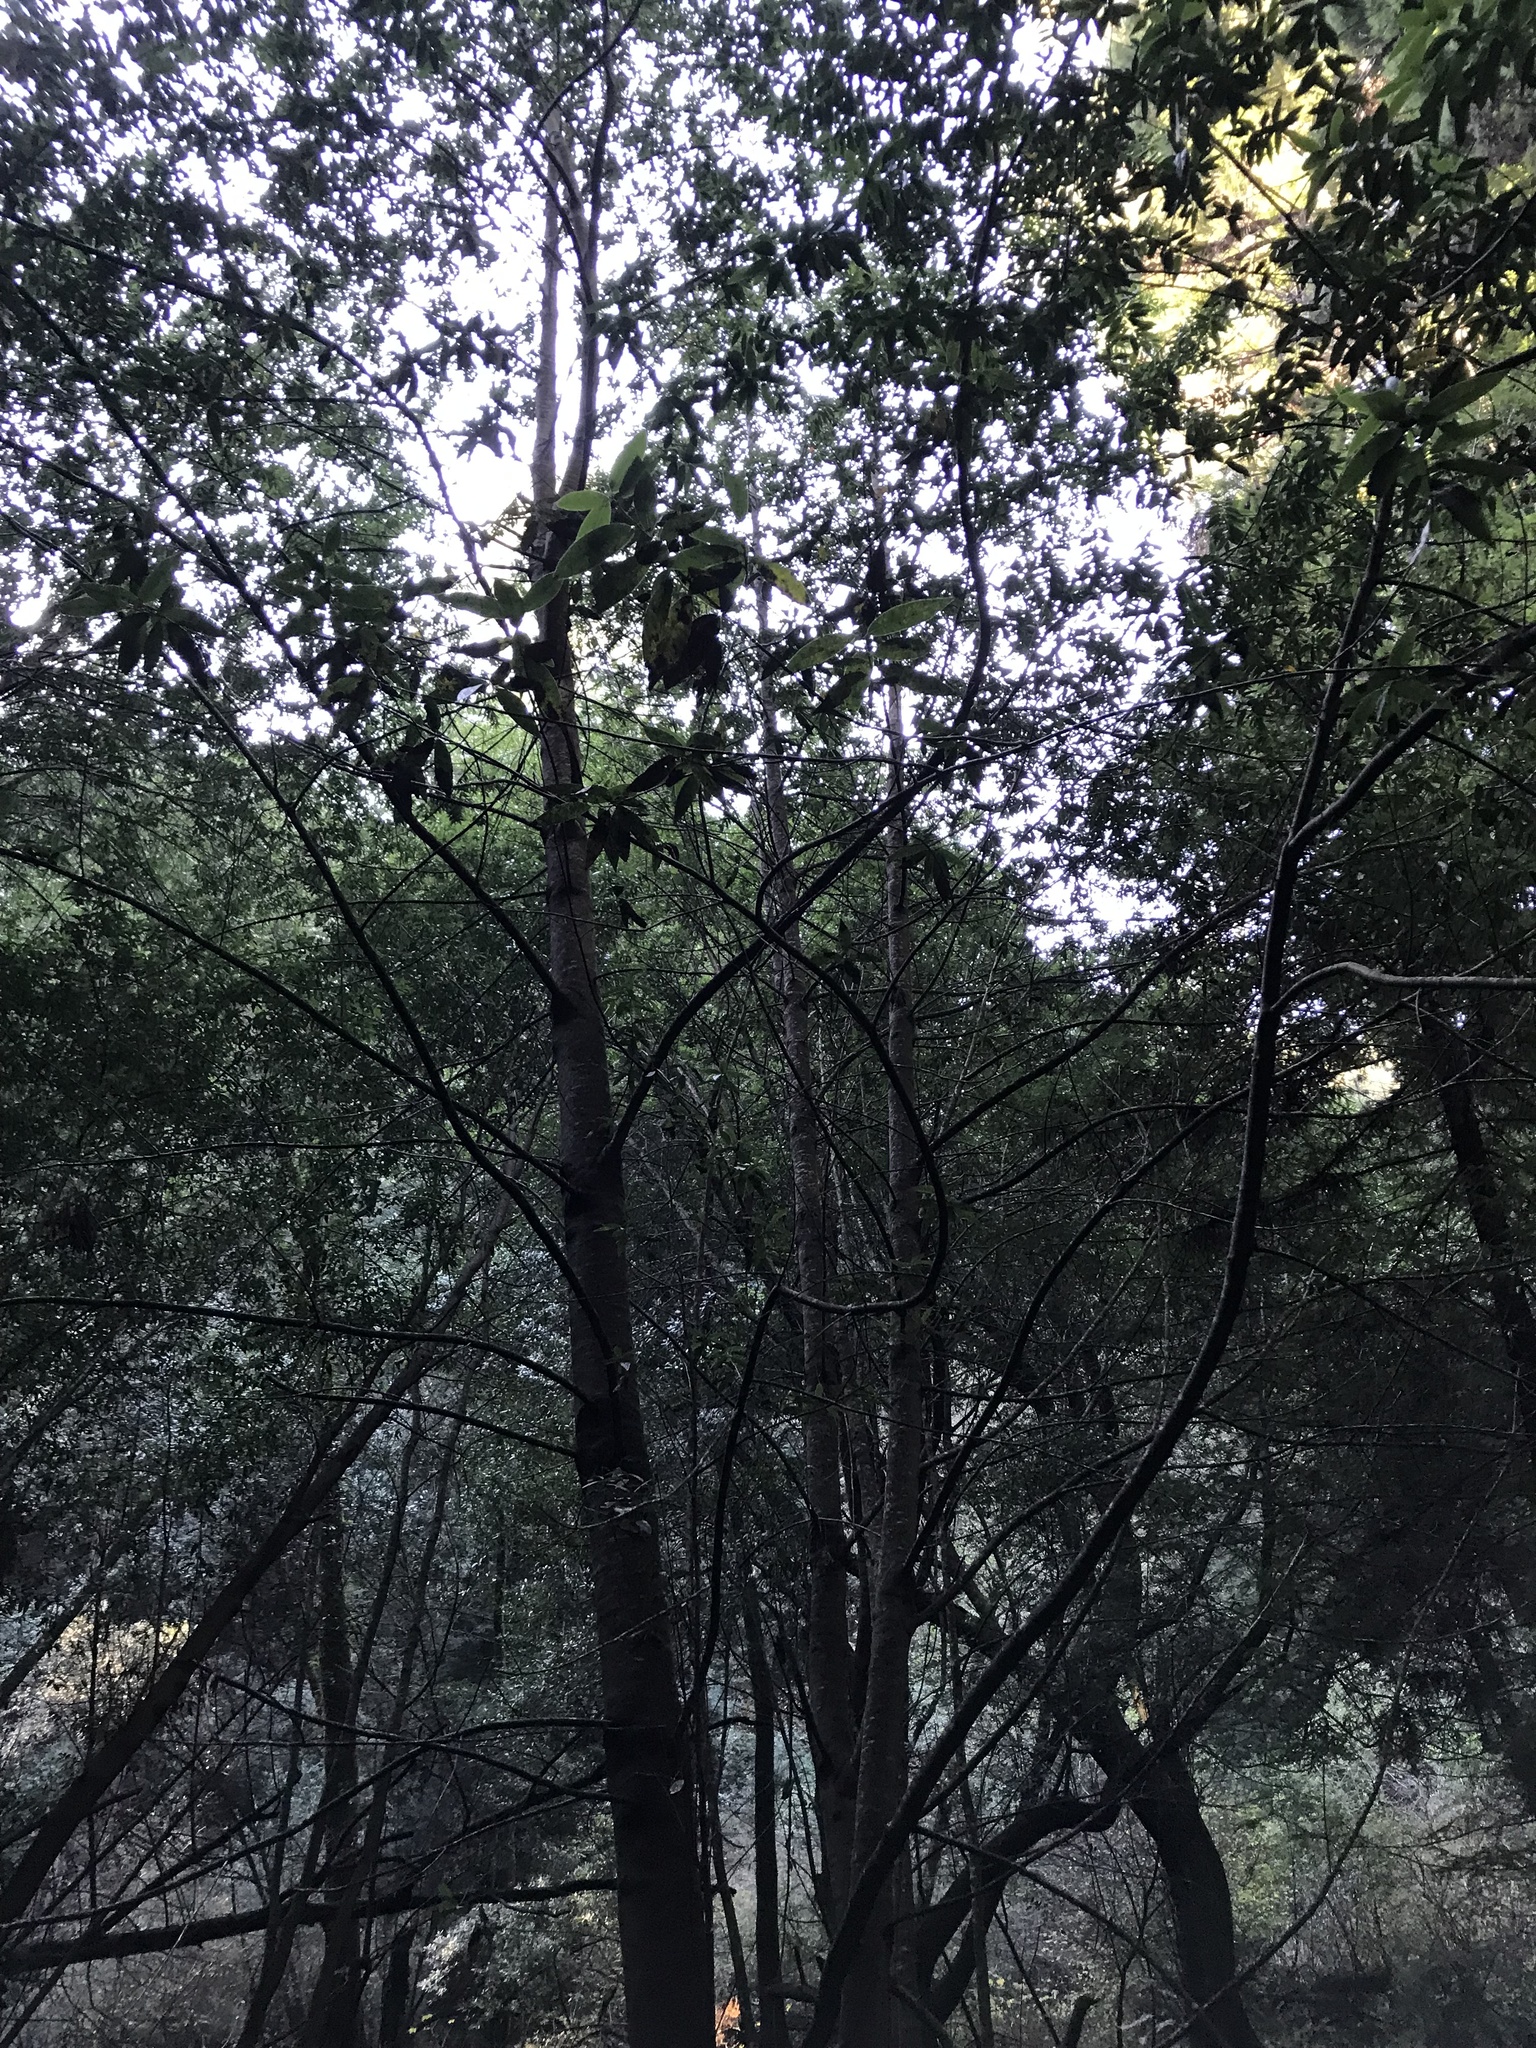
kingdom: Plantae
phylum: Tracheophyta
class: Magnoliopsida
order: Laurales
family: Lauraceae
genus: Umbellularia
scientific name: Umbellularia californica
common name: California bay
